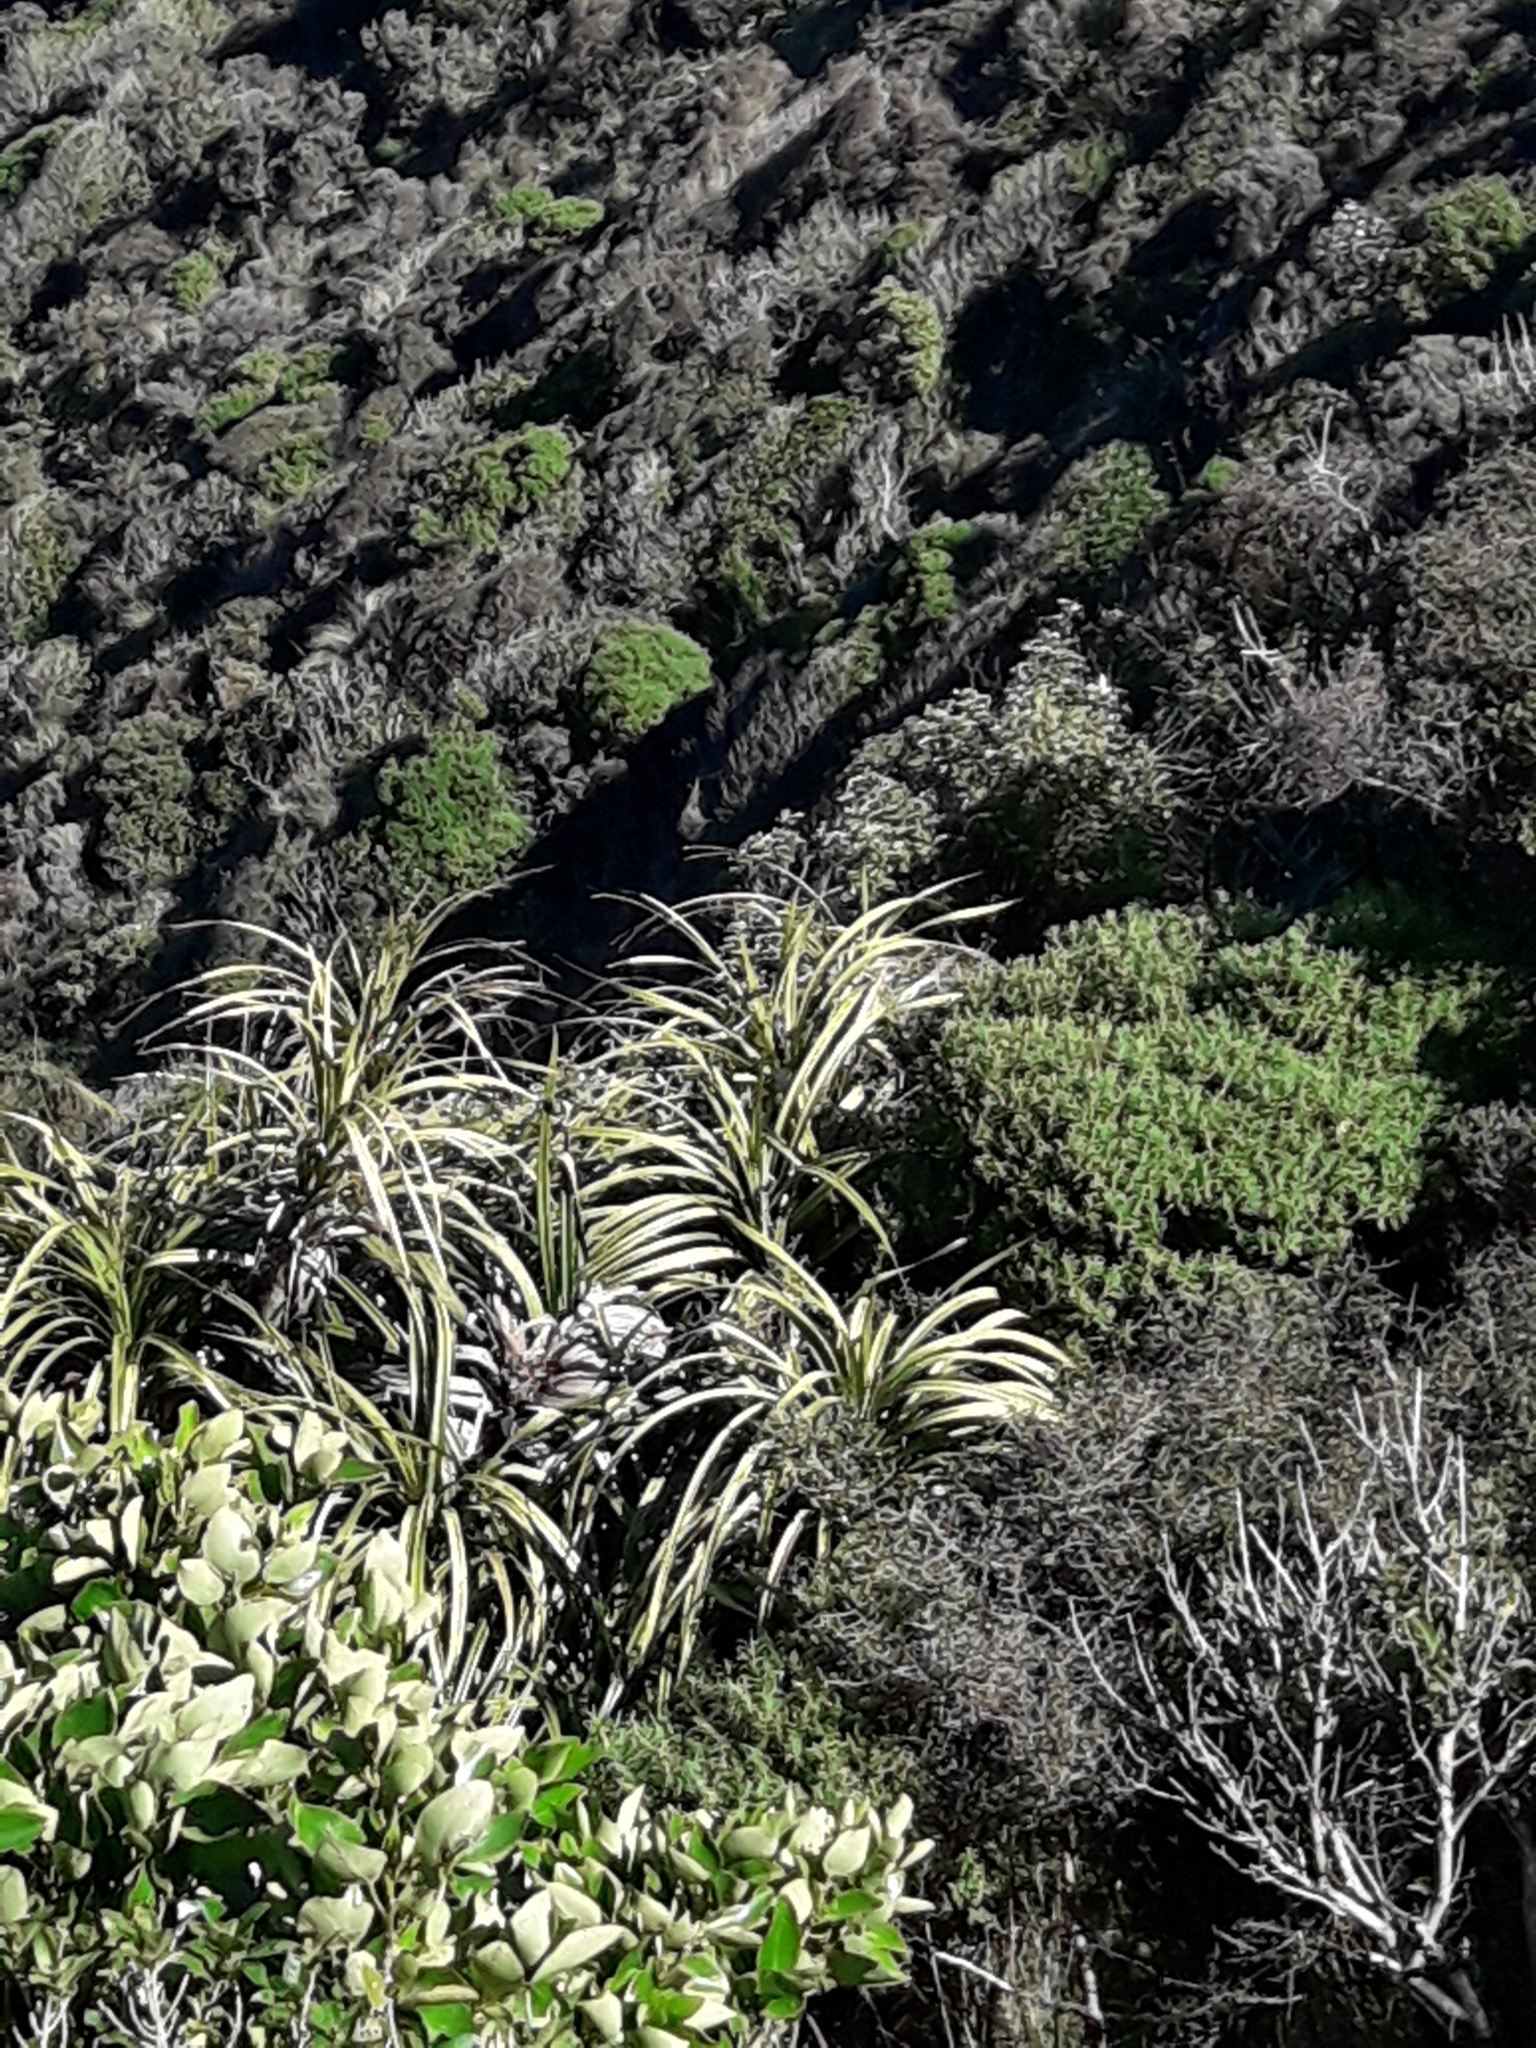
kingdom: Plantae
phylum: Tracheophyta
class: Liliopsida
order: Pandanales
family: Pandanaceae
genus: Freycinetia
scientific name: Freycinetia banksii
